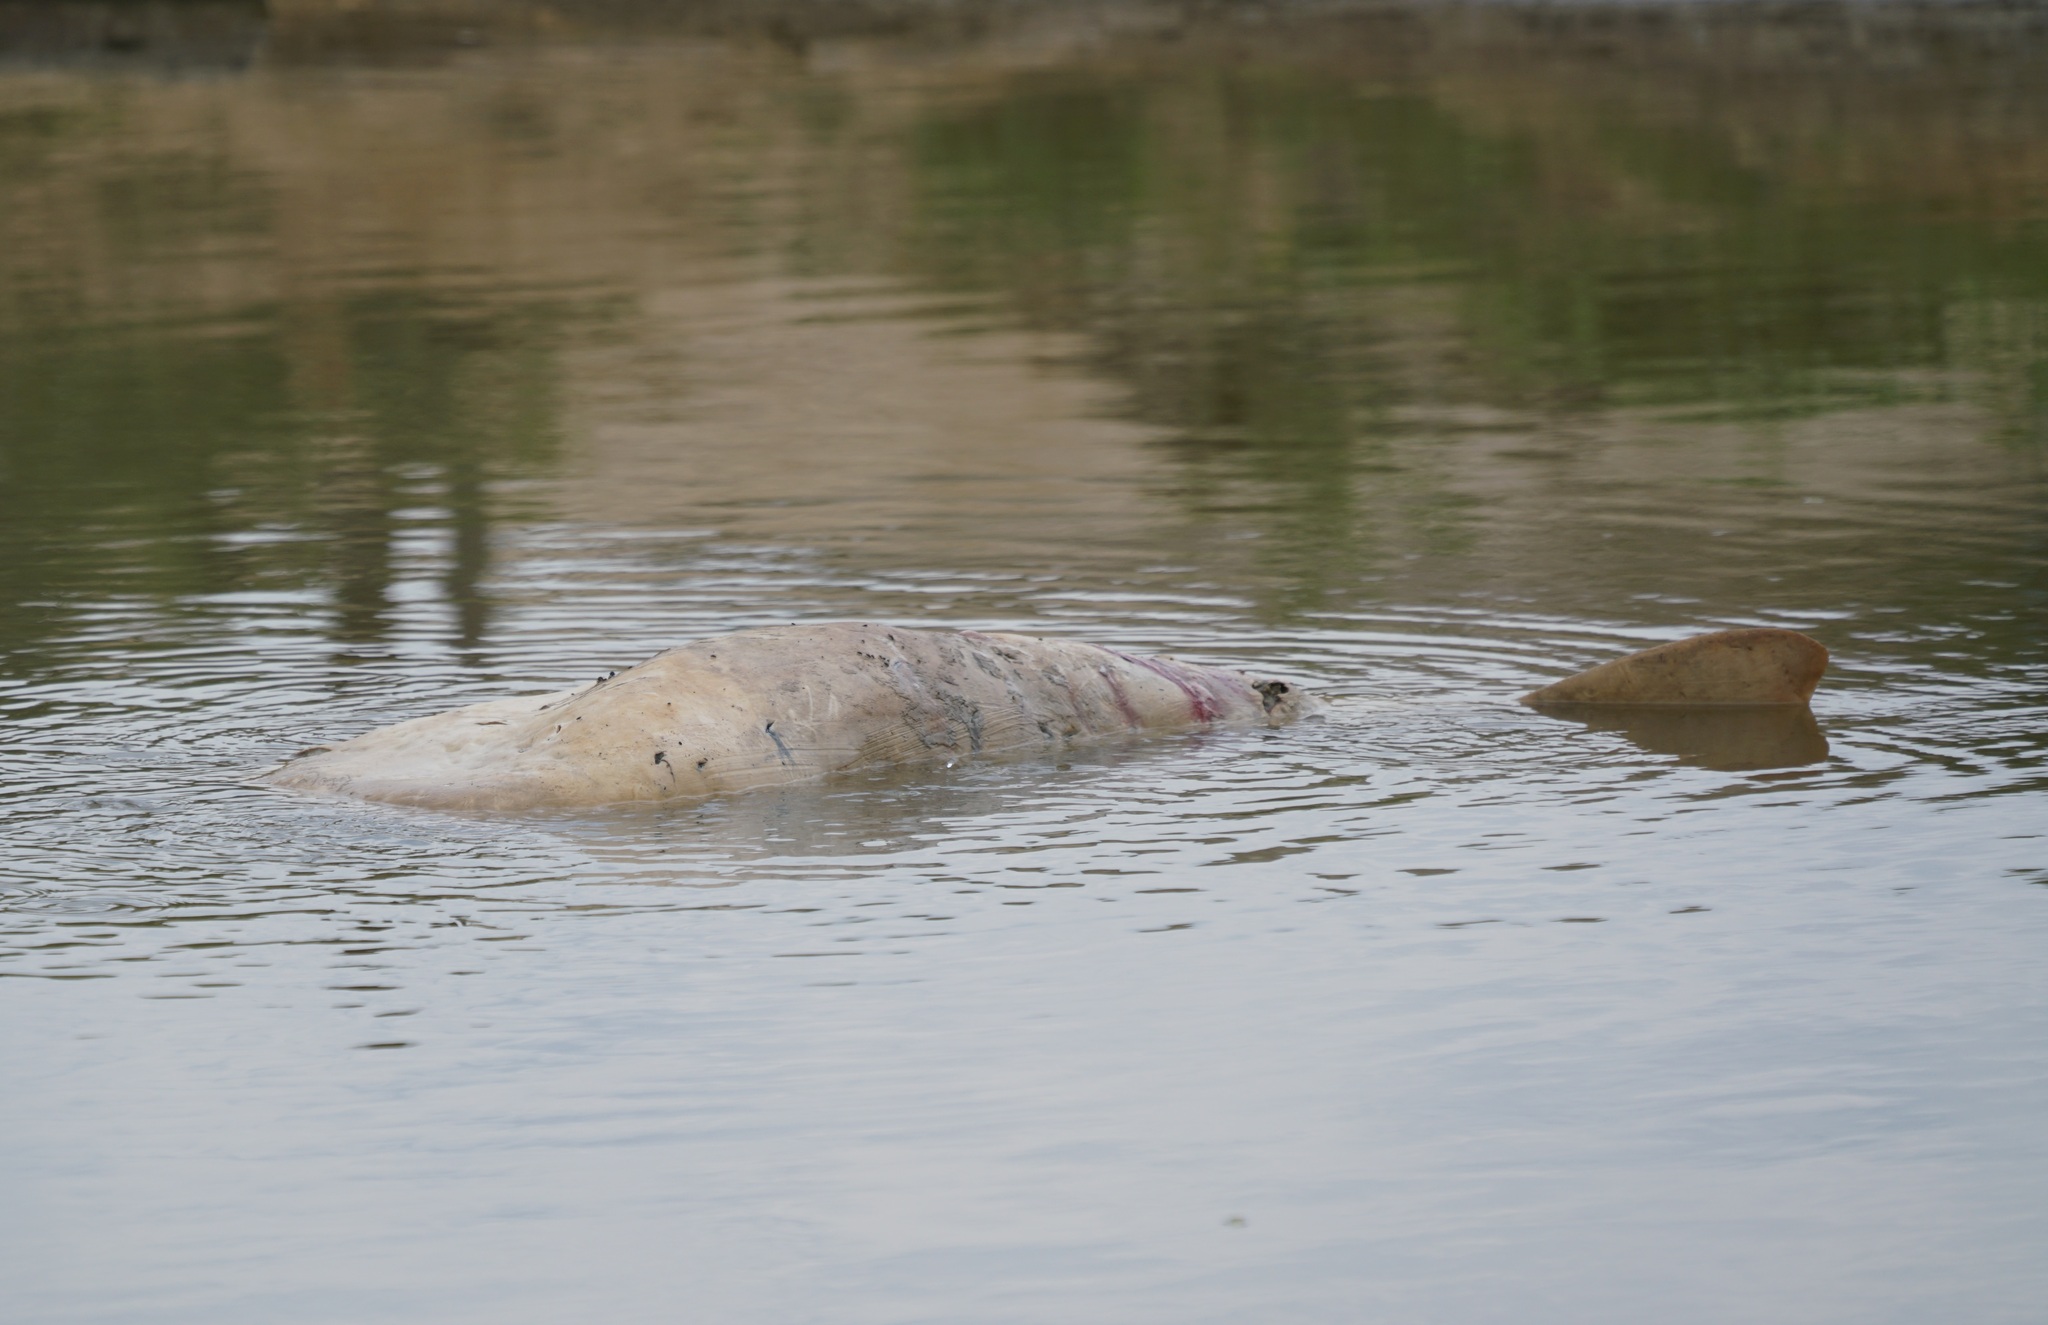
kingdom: Animalia
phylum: Chordata
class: Mammalia
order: Cetacea
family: Iniidae
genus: Inia
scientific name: Inia geoffrensis
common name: Amazon river dolphin
